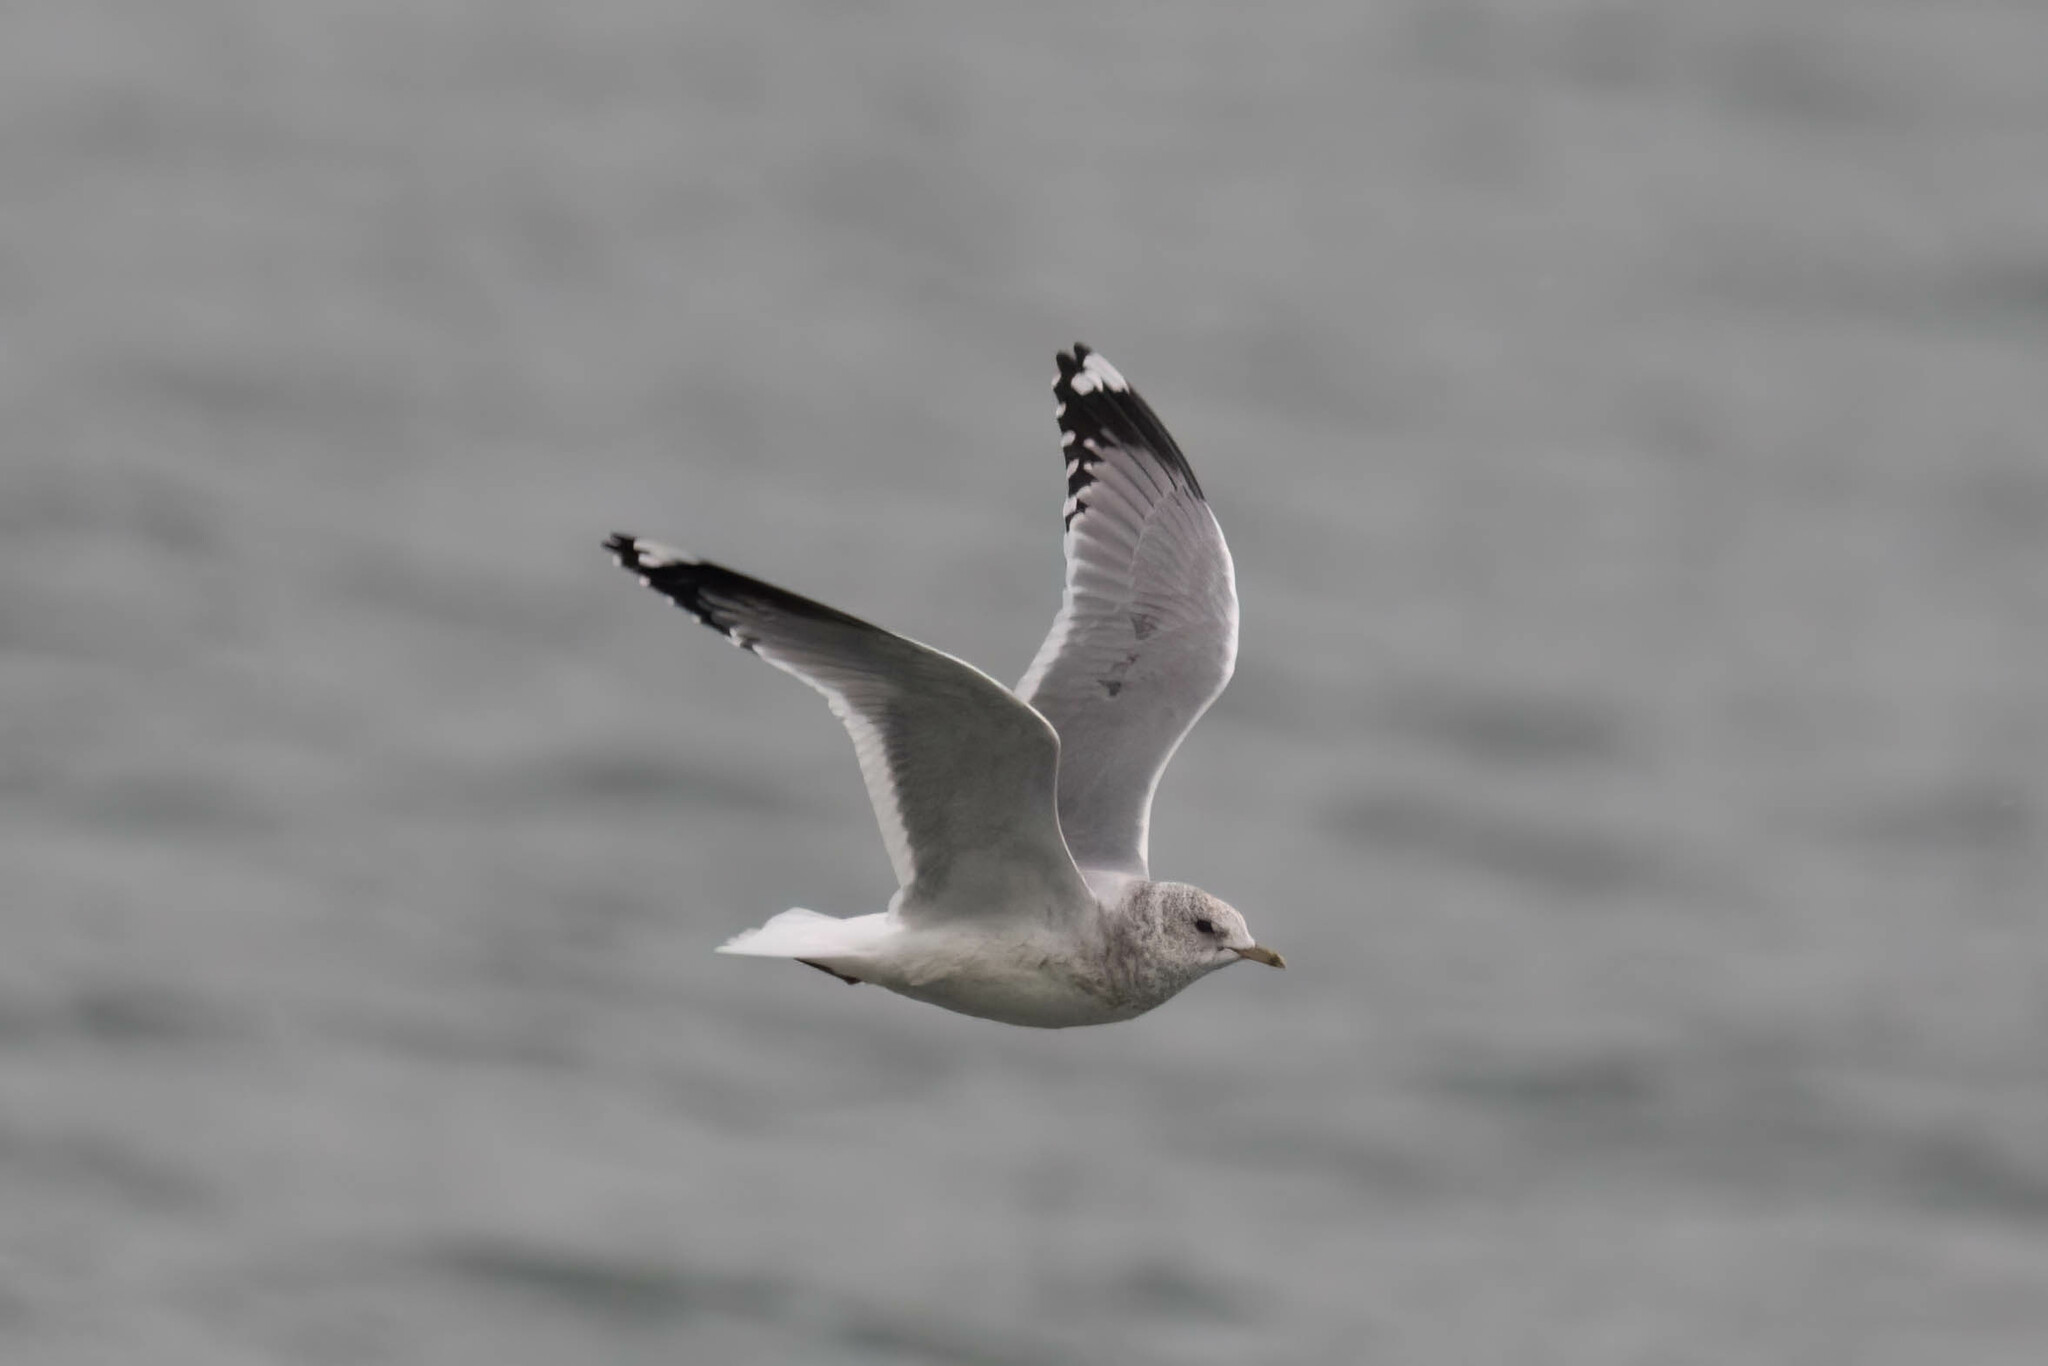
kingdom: Animalia
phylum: Chordata
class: Aves
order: Charadriiformes
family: Laridae
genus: Larus
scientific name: Larus brachyrhynchus
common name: Short-billed gull
